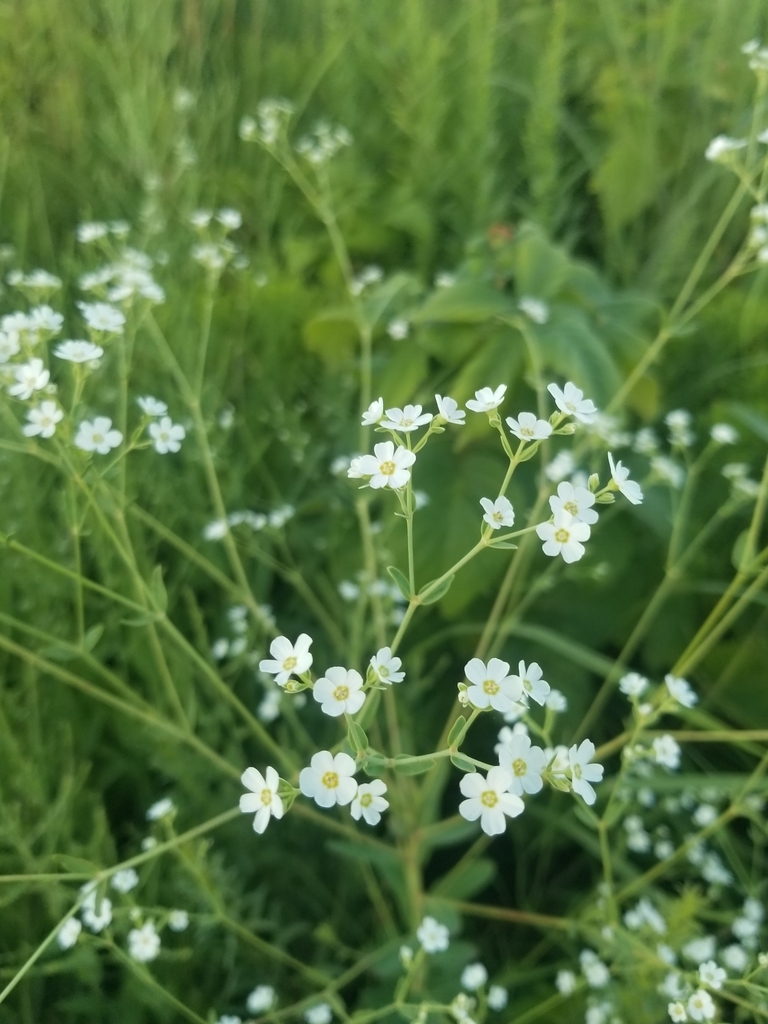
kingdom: Plantae
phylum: Tracheophyta
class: Magnoliopsida
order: Malpighiales
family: Euphorbiaceae
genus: Euphorbia
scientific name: Euphorbia corollata
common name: Flowering spurge
